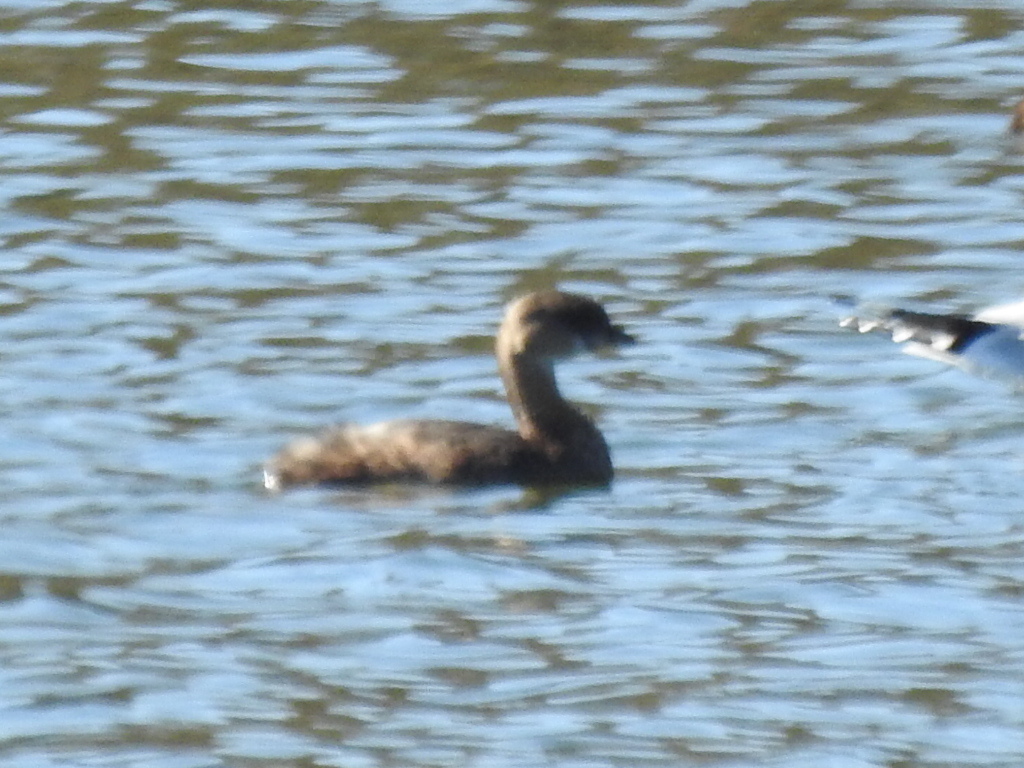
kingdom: Animalia
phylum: Chordata
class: Aves
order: Podicipediformes
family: Podicipedidae
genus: Podilymbus
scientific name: Podilymbus podiceps
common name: Pied-billed grebe
